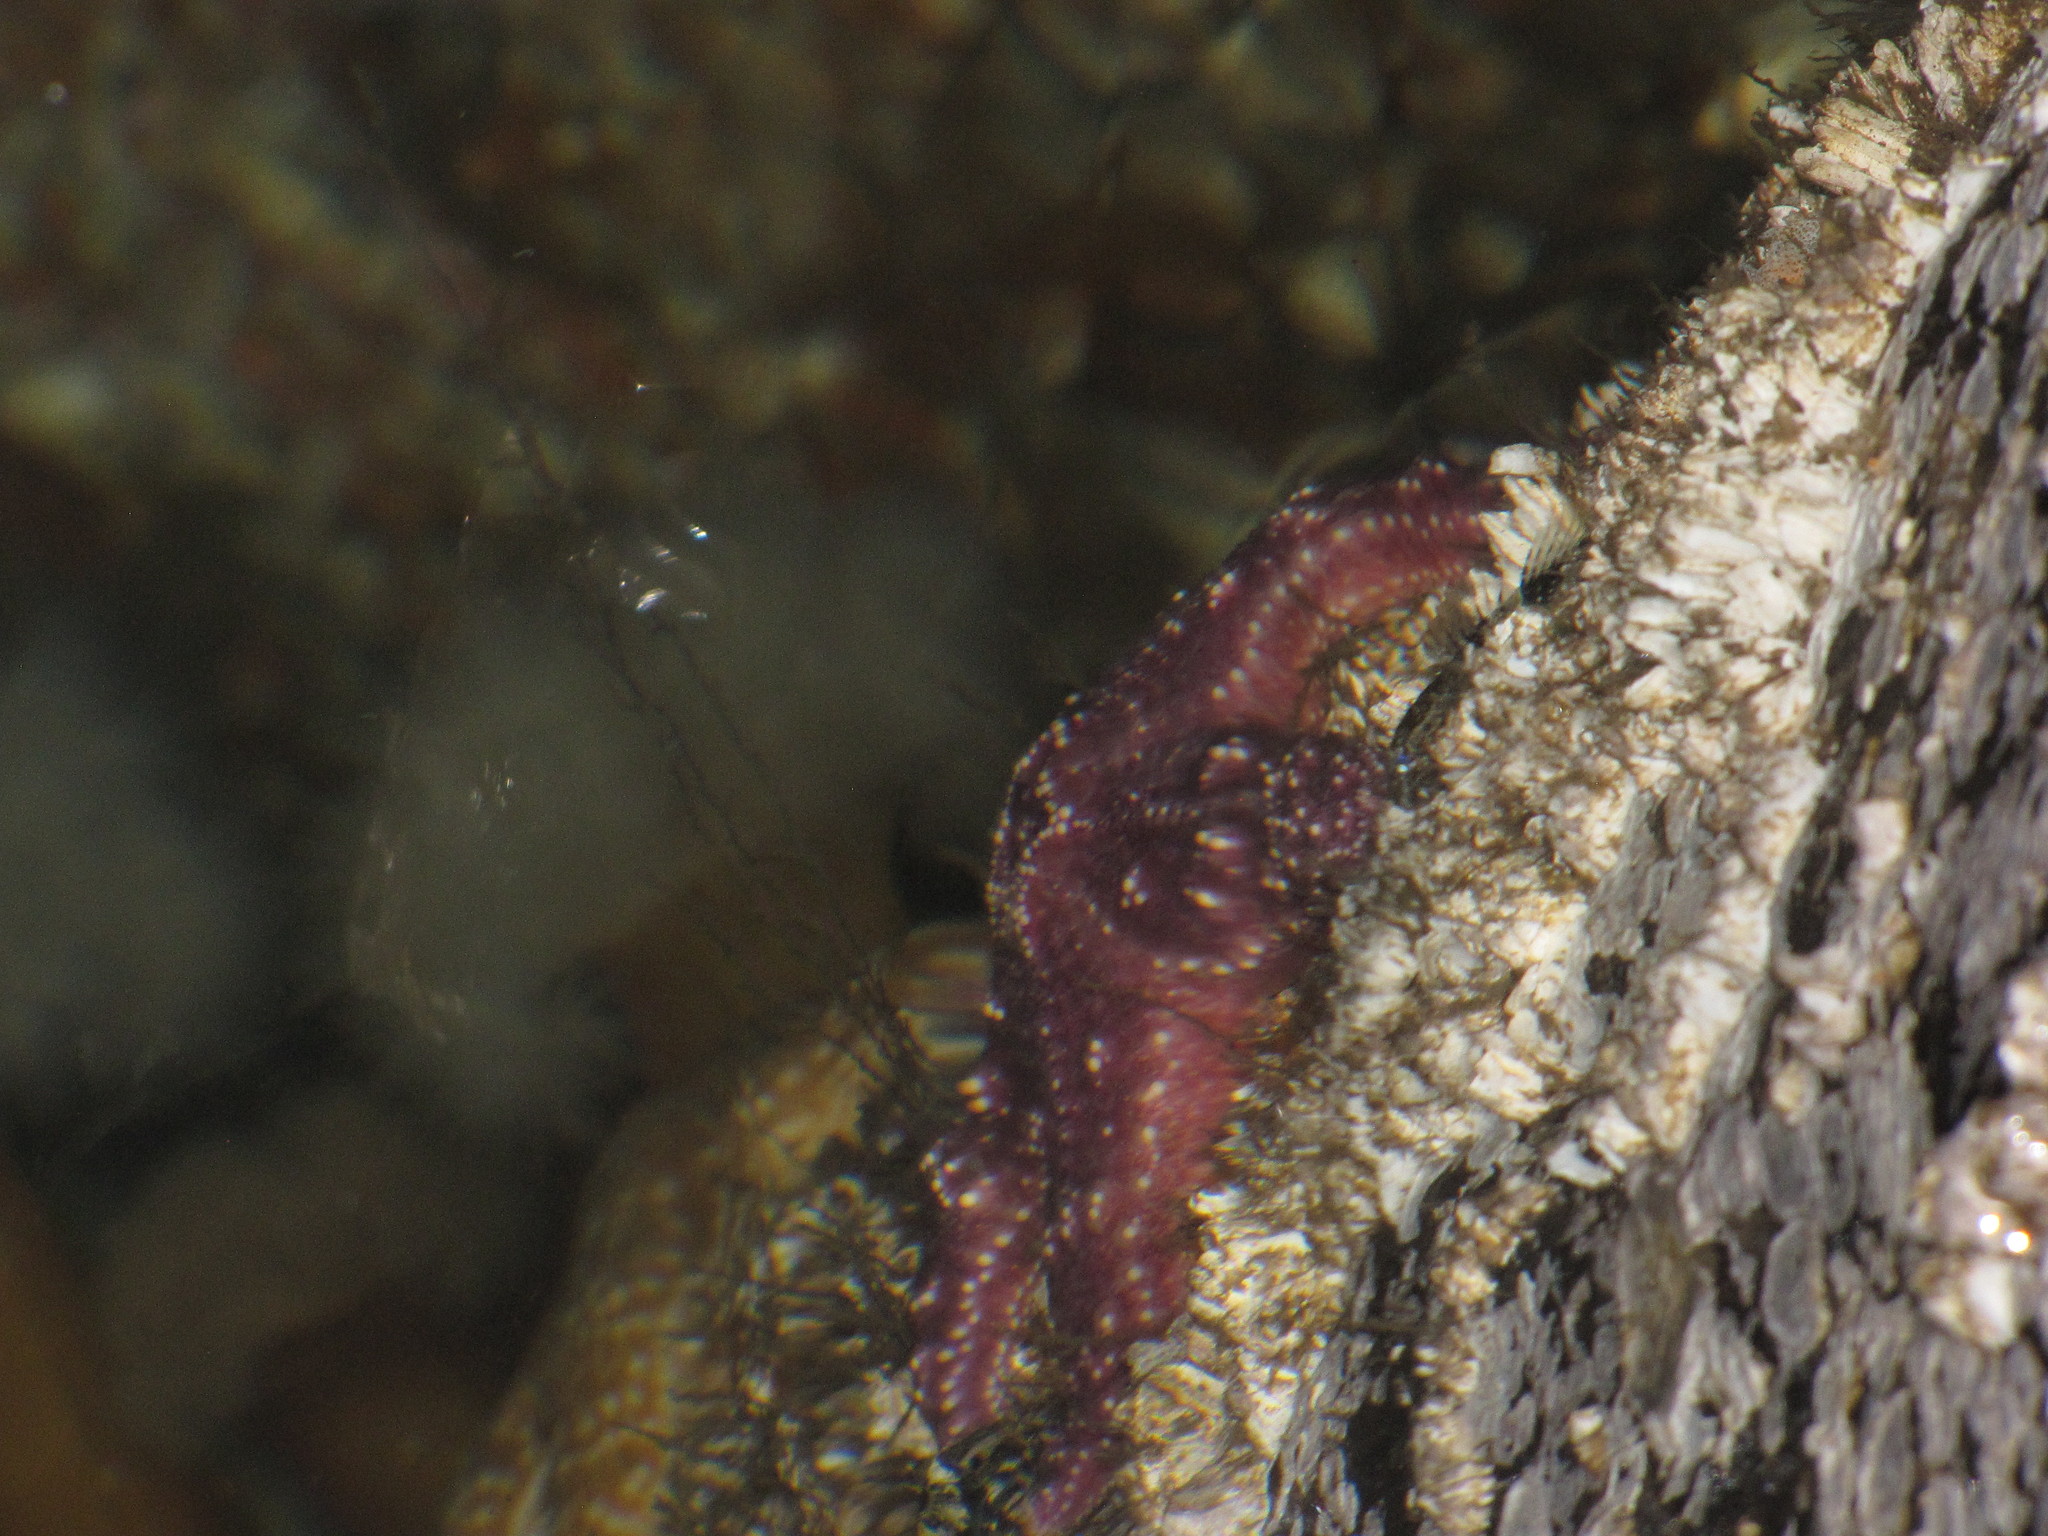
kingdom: Animalia
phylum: Echinodermata
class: Asteroidea
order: Forcipulatida
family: Asteriidae
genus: Pisaster
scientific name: Pisaster ochraceus
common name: Ochre stars
